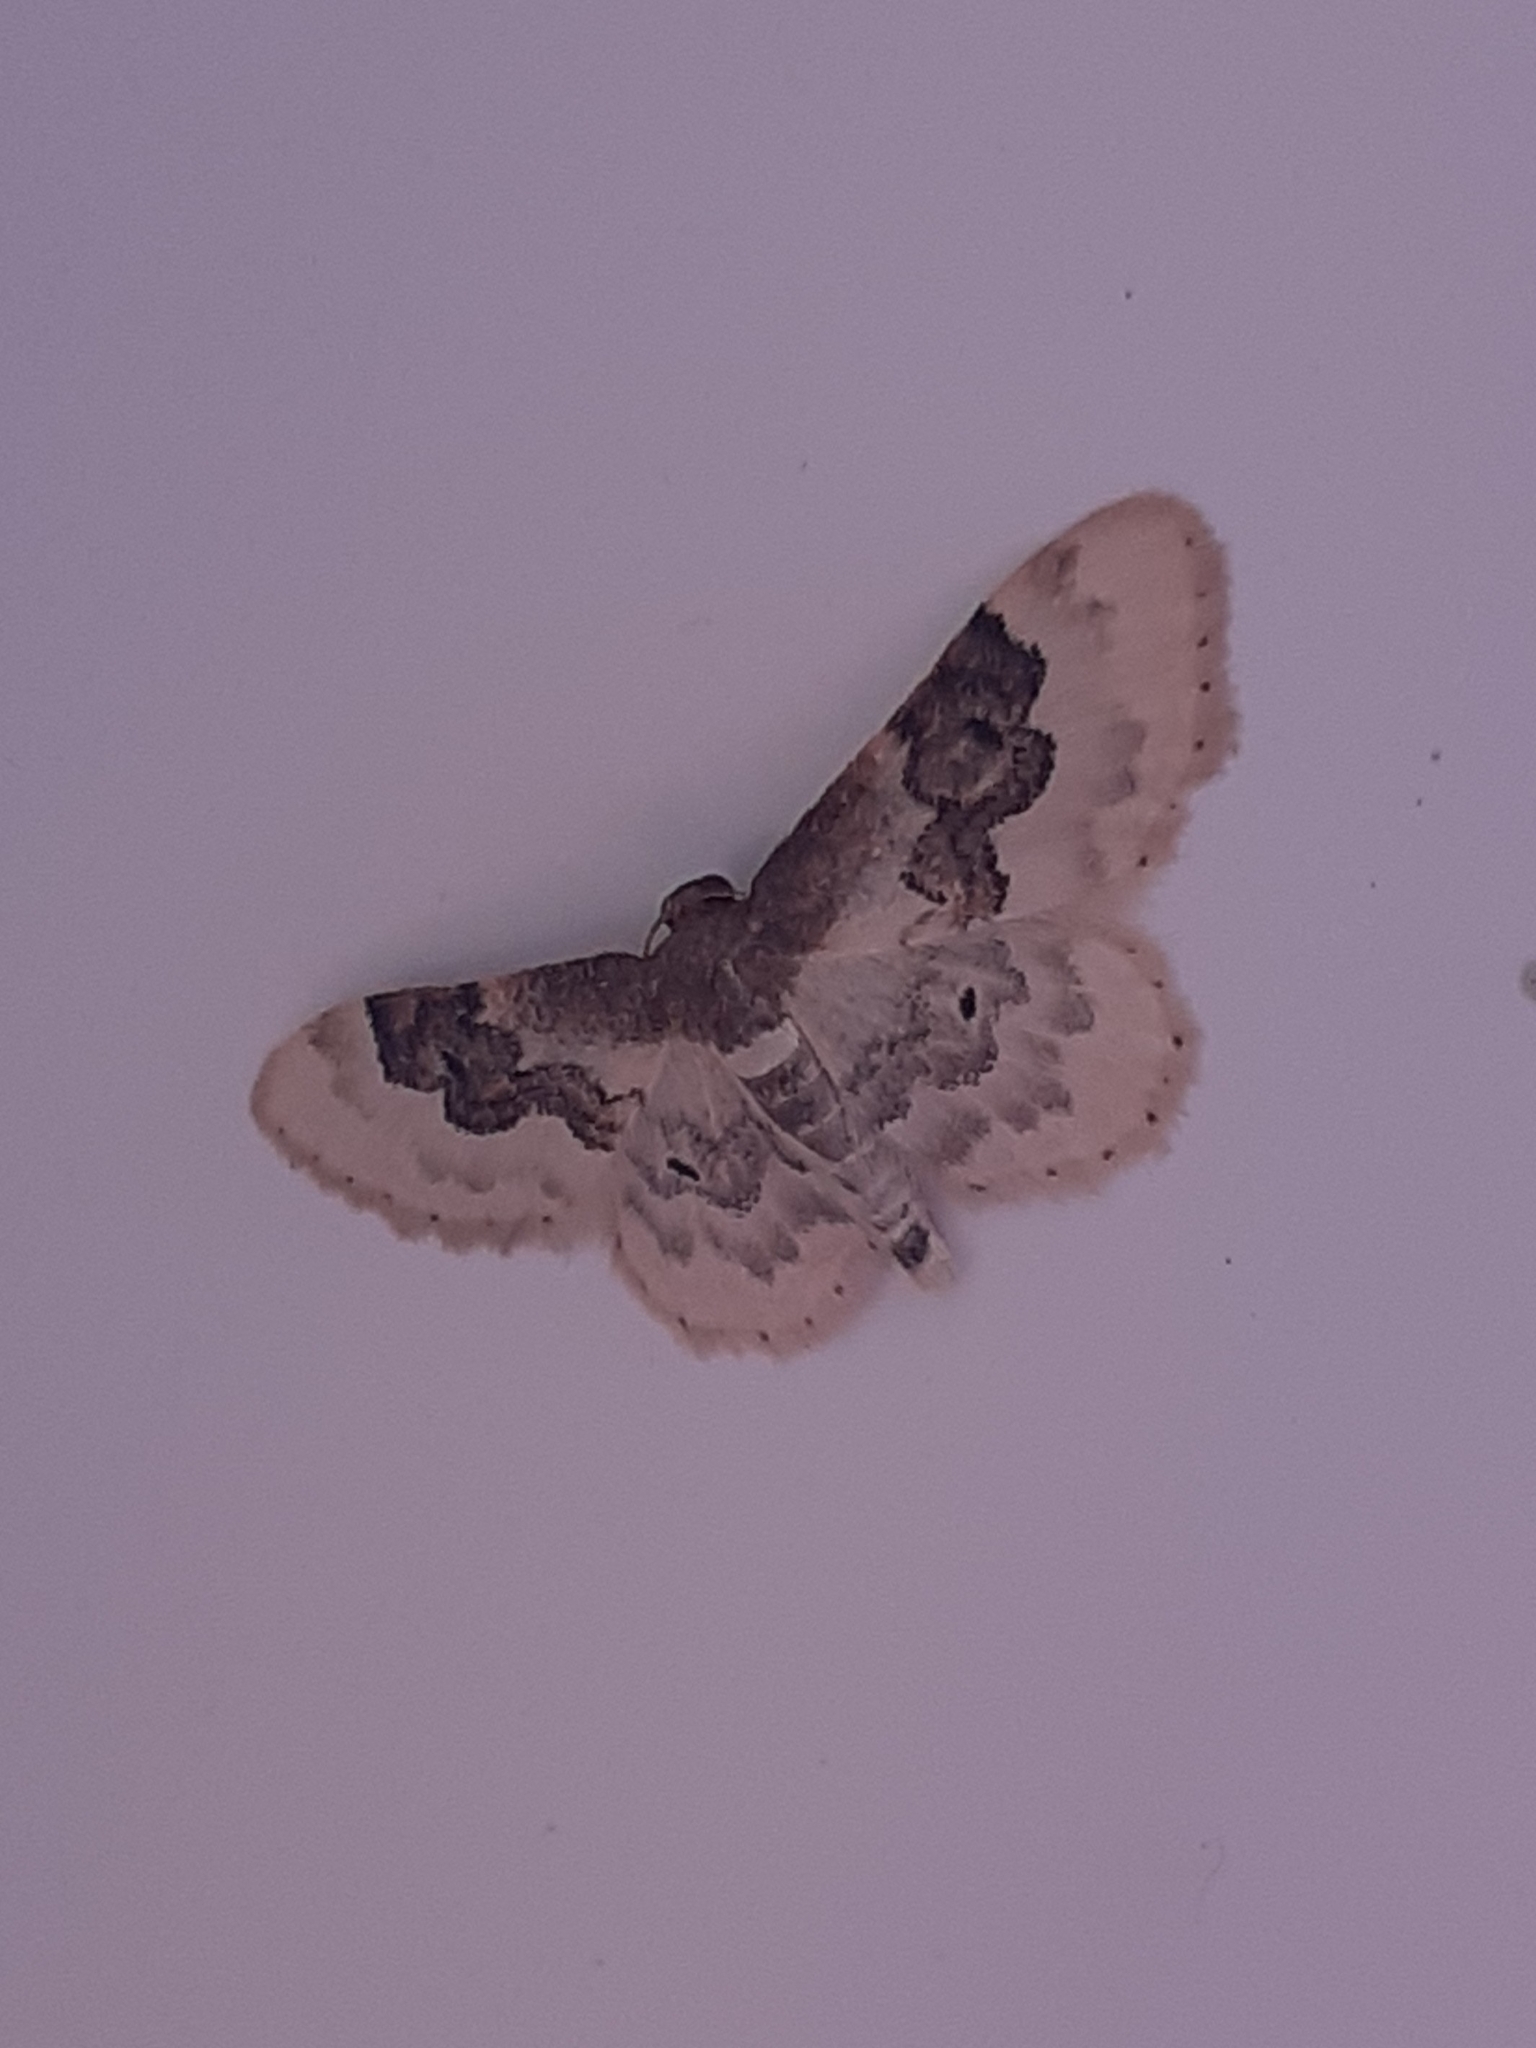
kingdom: Animalia
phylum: Arthropoda
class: Insecta
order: Lepidoptera
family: Geometridae
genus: Idaea
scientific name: Idaea rusticata
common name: Least carpet
